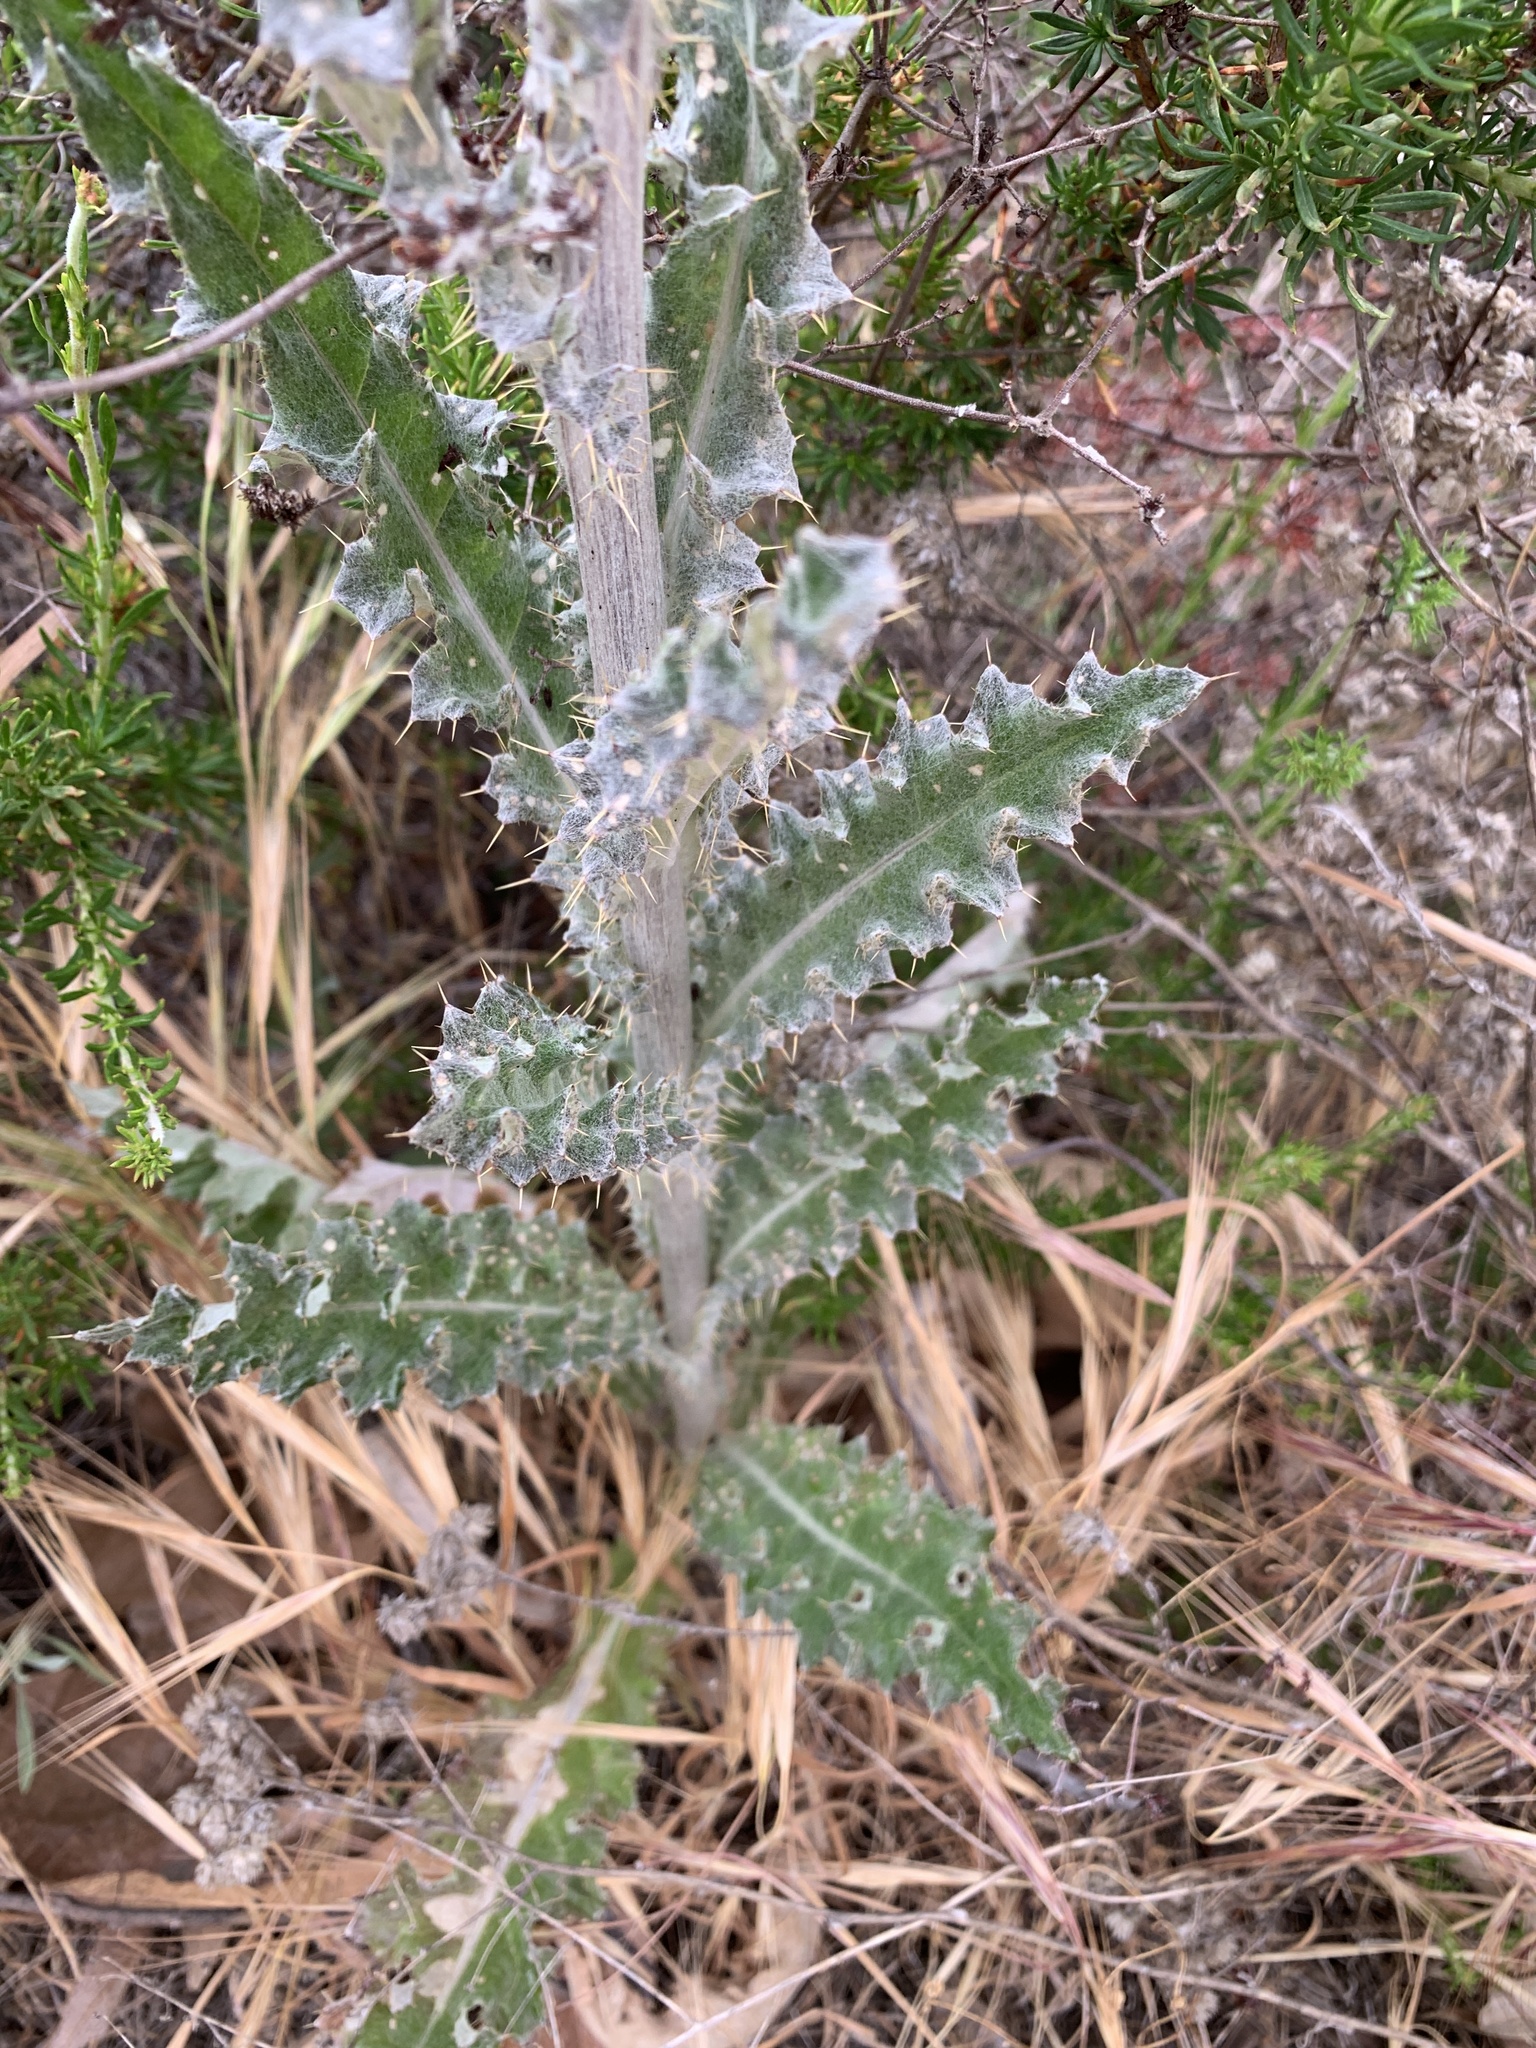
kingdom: Plantae
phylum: Tracheophyta
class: Magnoliopsida
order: Asterales
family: Asteraceae
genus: Cirsium
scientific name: Cirsium occidentale
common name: Western thistle
